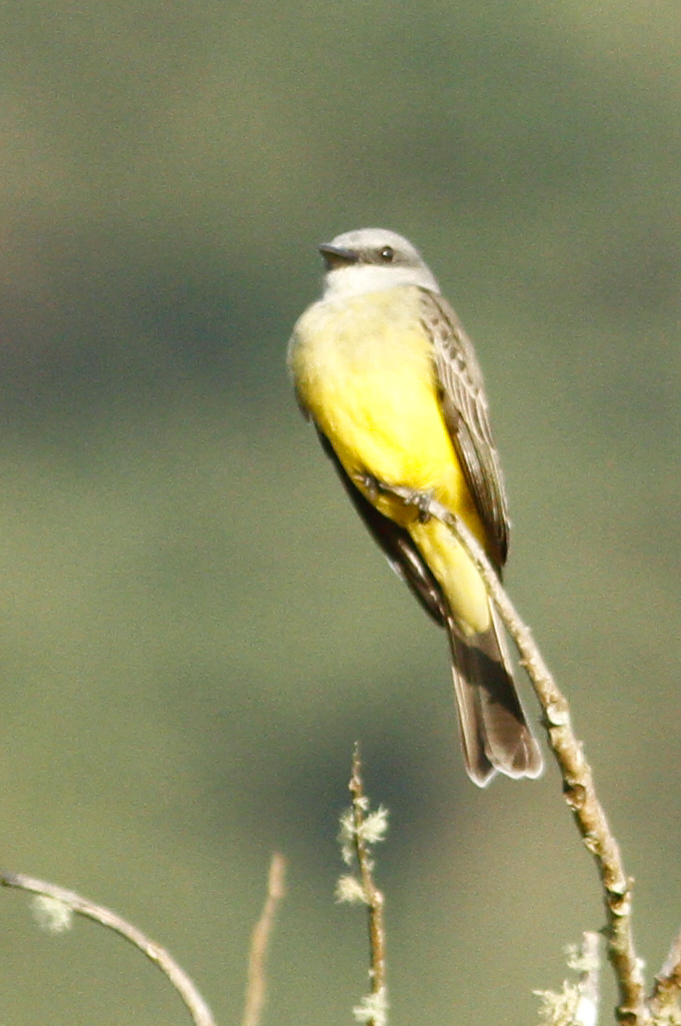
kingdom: Animalia
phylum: Chordata
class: Aves
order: Passeriformes
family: Tyrannidae
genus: Tyrannus
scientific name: Tyrannus melancholicus
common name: Tropical kingbird
